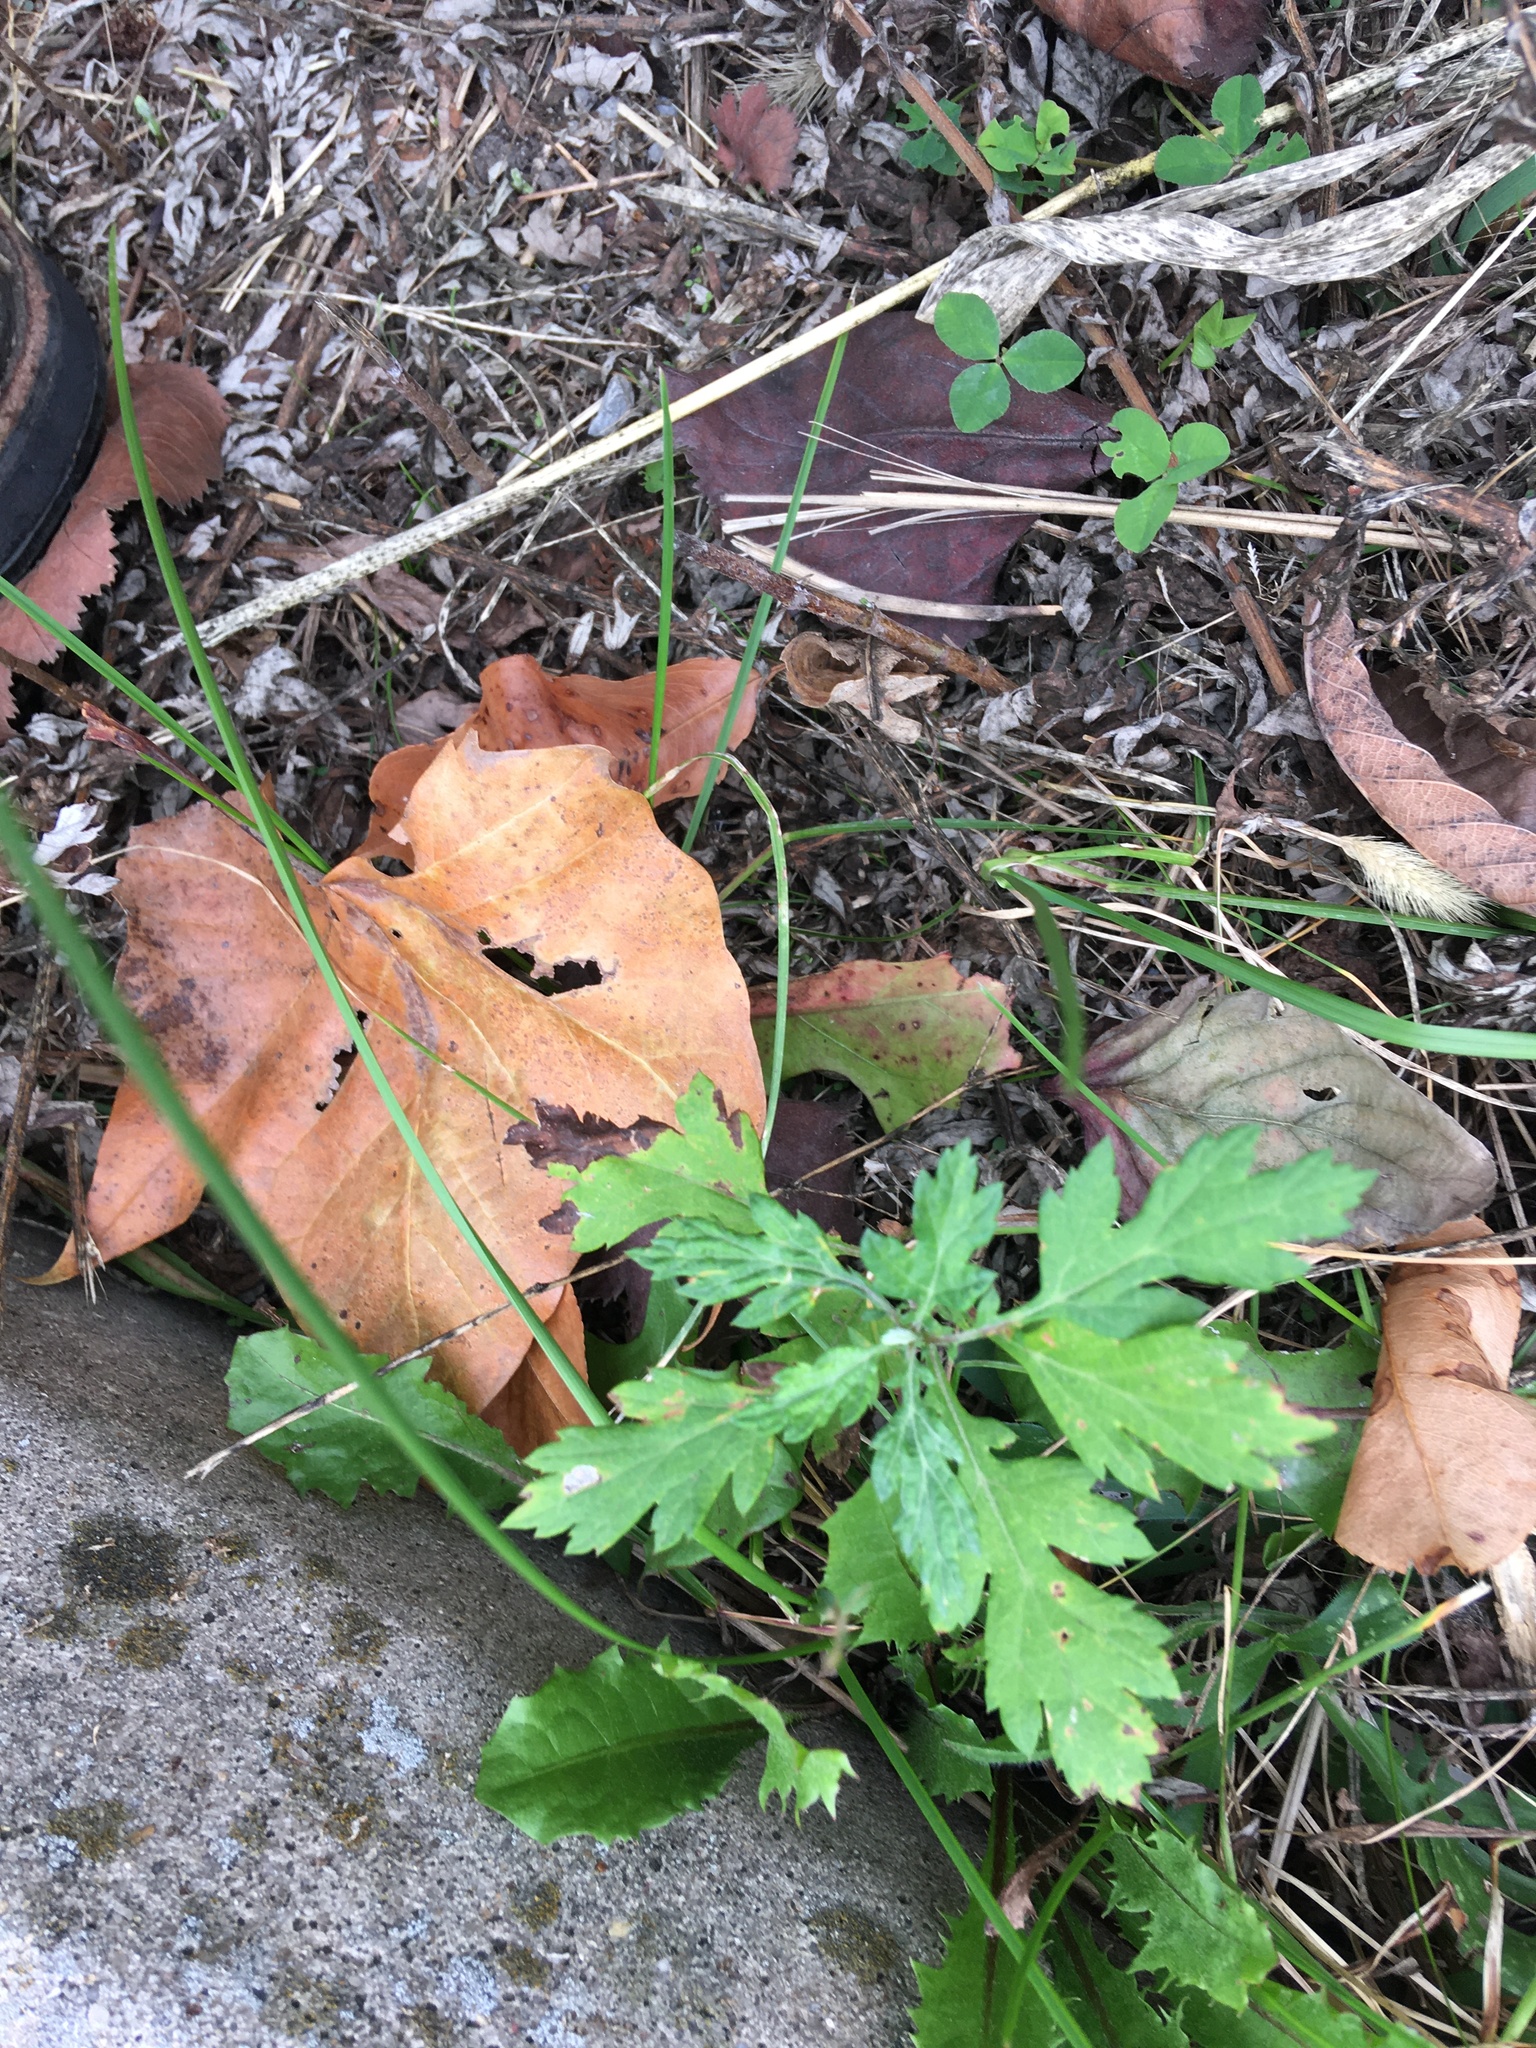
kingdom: Plantae
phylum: Tracheophyta
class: Magnoliopsida
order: Asterales
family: Asteraceae
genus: Artemisia
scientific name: Artemisia vulgaris
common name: Mugwort
